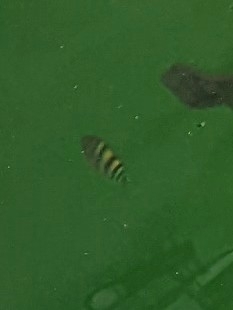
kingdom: Animalia
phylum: Chordata
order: Perciformes
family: Pomacentridae
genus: Abudefduf
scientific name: Abudefduf vaigiensis
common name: Indo-pacific sergeant
